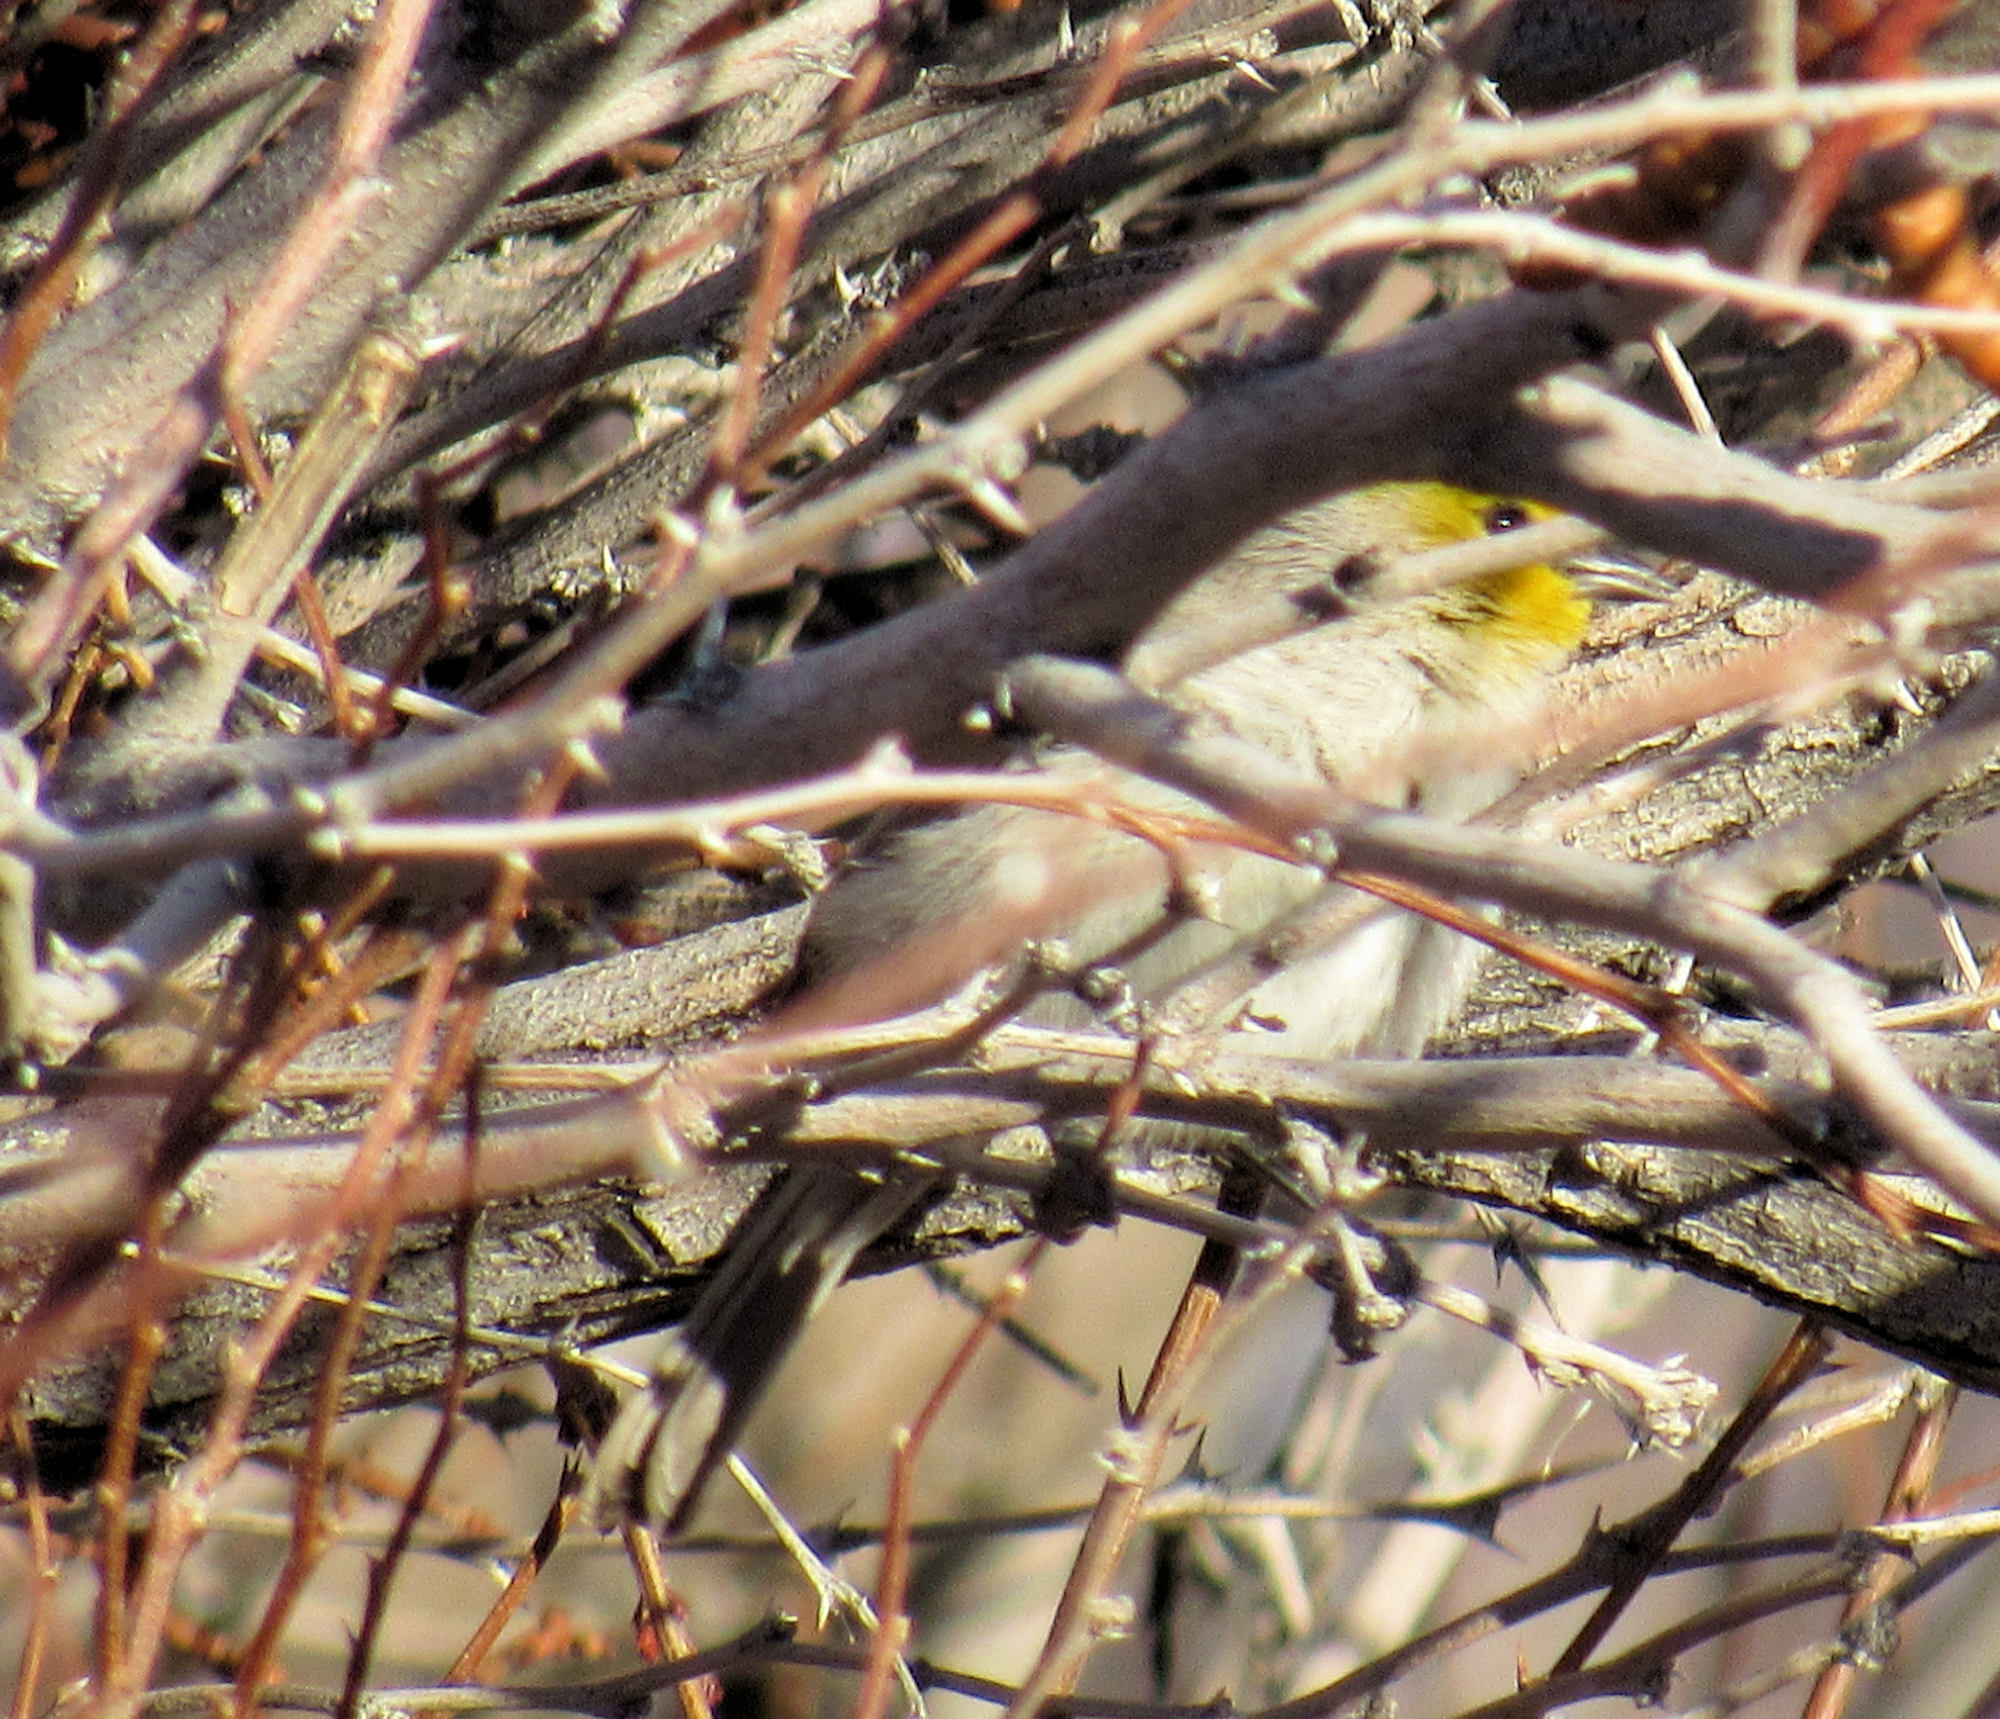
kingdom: Animalia
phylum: Chordata
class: Aves
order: Passeriformes
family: Remizidae
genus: Auriparus
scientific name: Auriparus flaviceps
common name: Verdin
